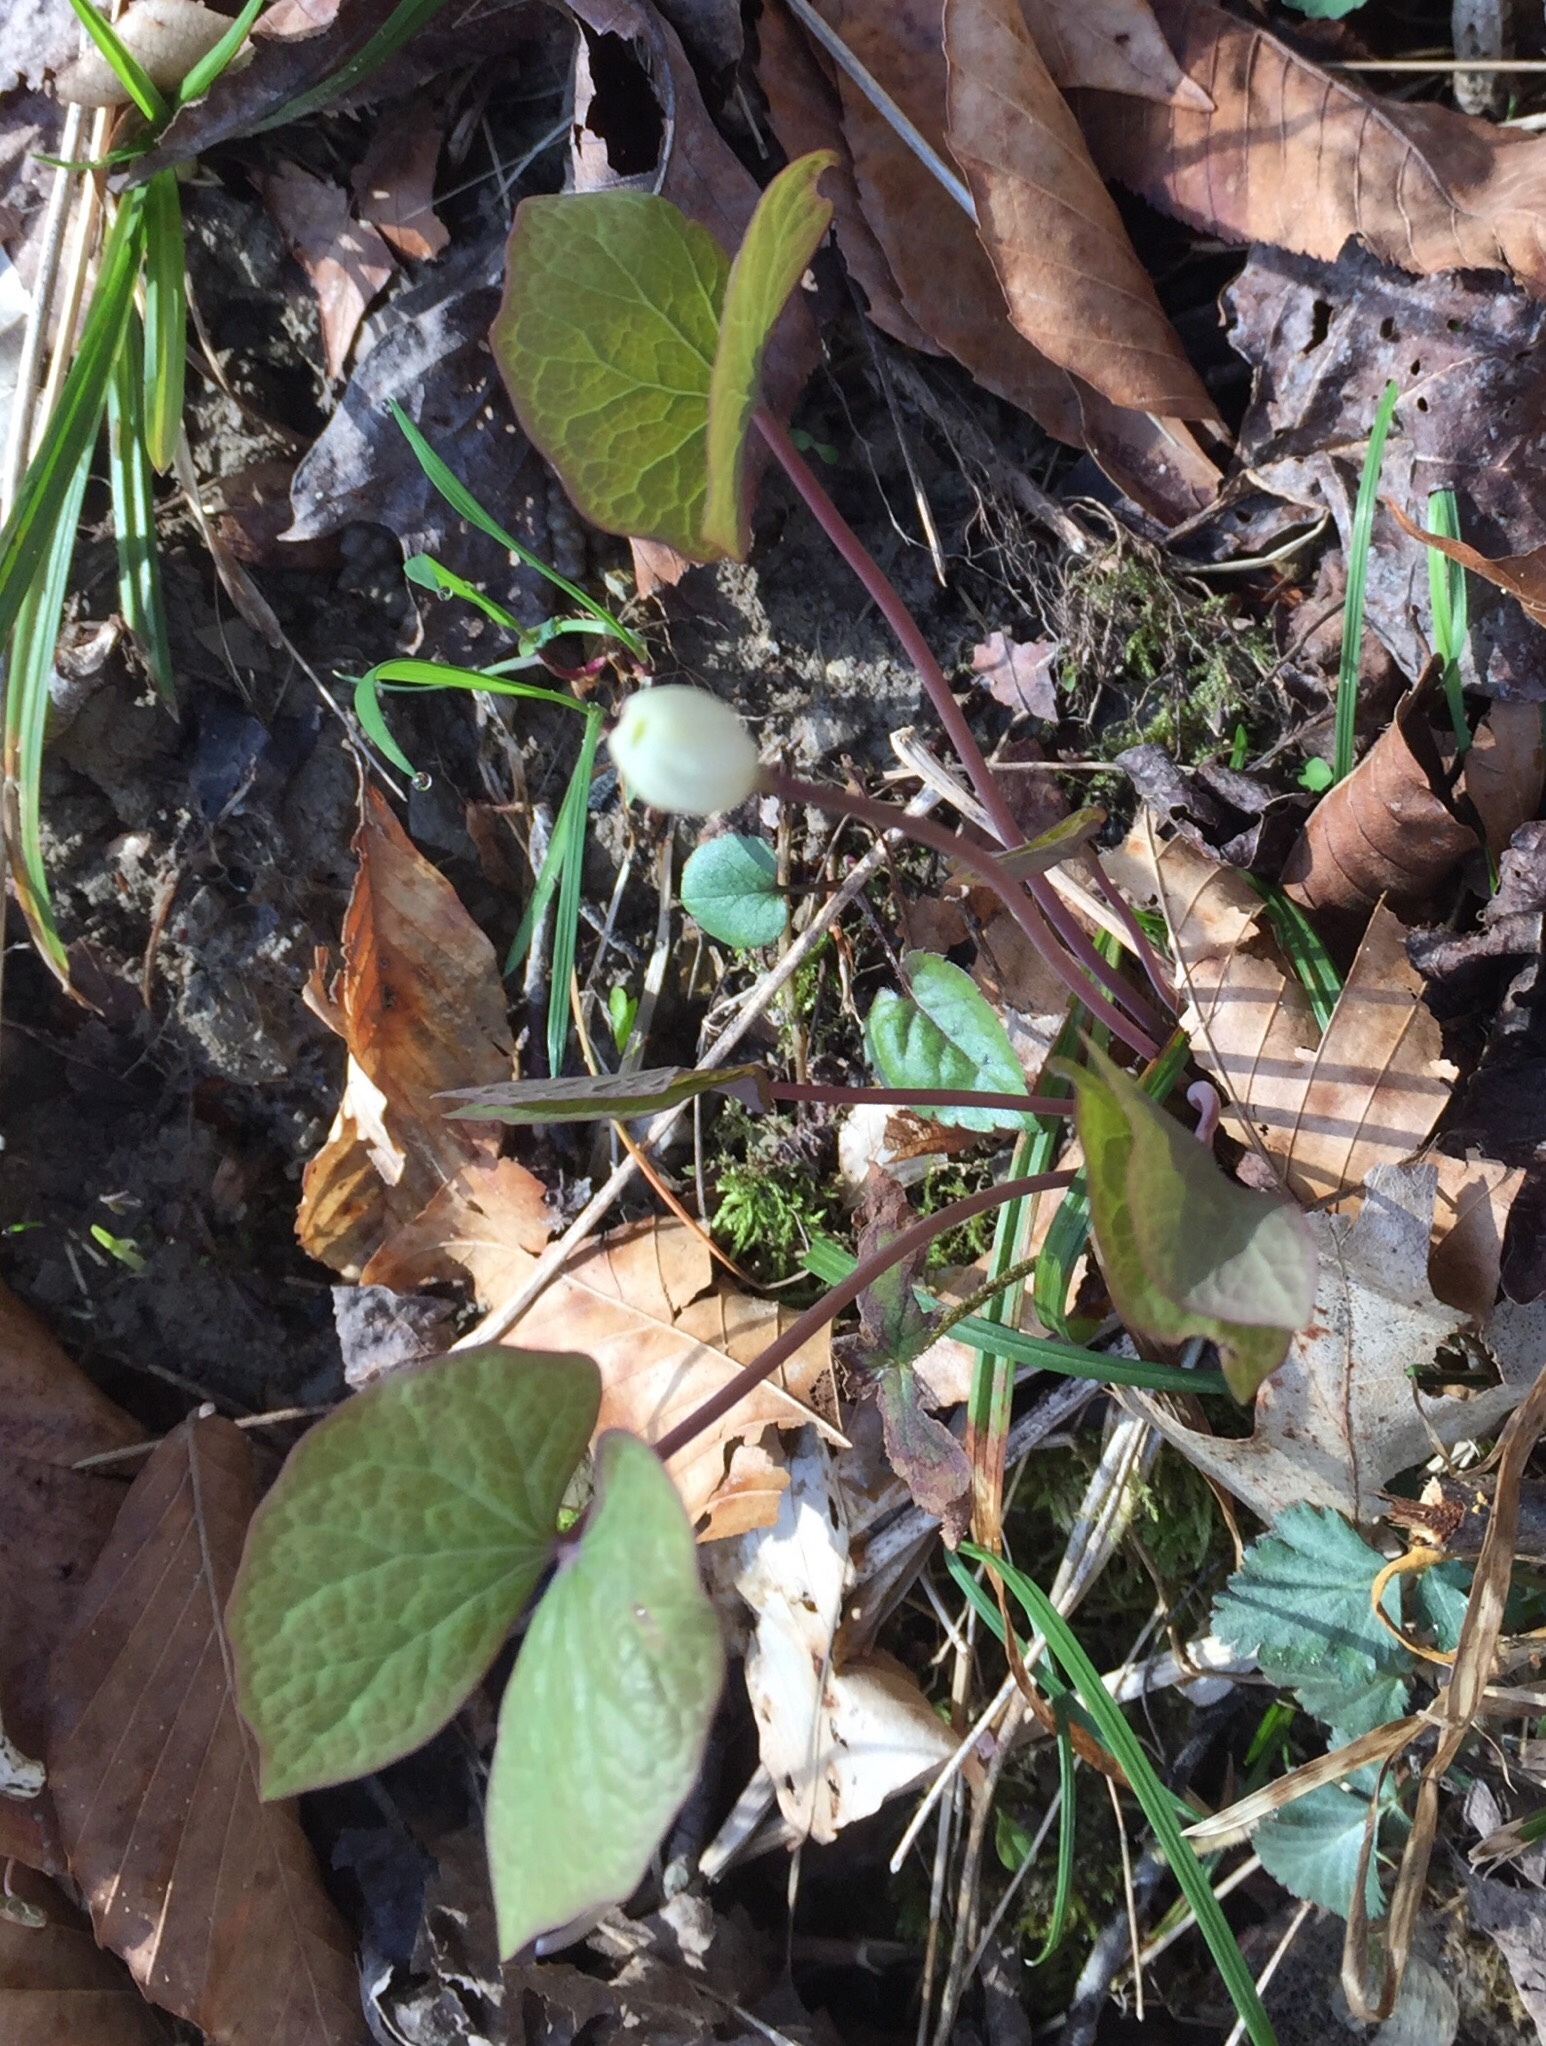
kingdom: Plantae
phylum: Tracheophyta
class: Magnoliopsida
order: Ranunculales
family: Berberidaceae
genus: Jeffersonia
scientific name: Jeffersonia diphylla
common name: Rheumatism-root
